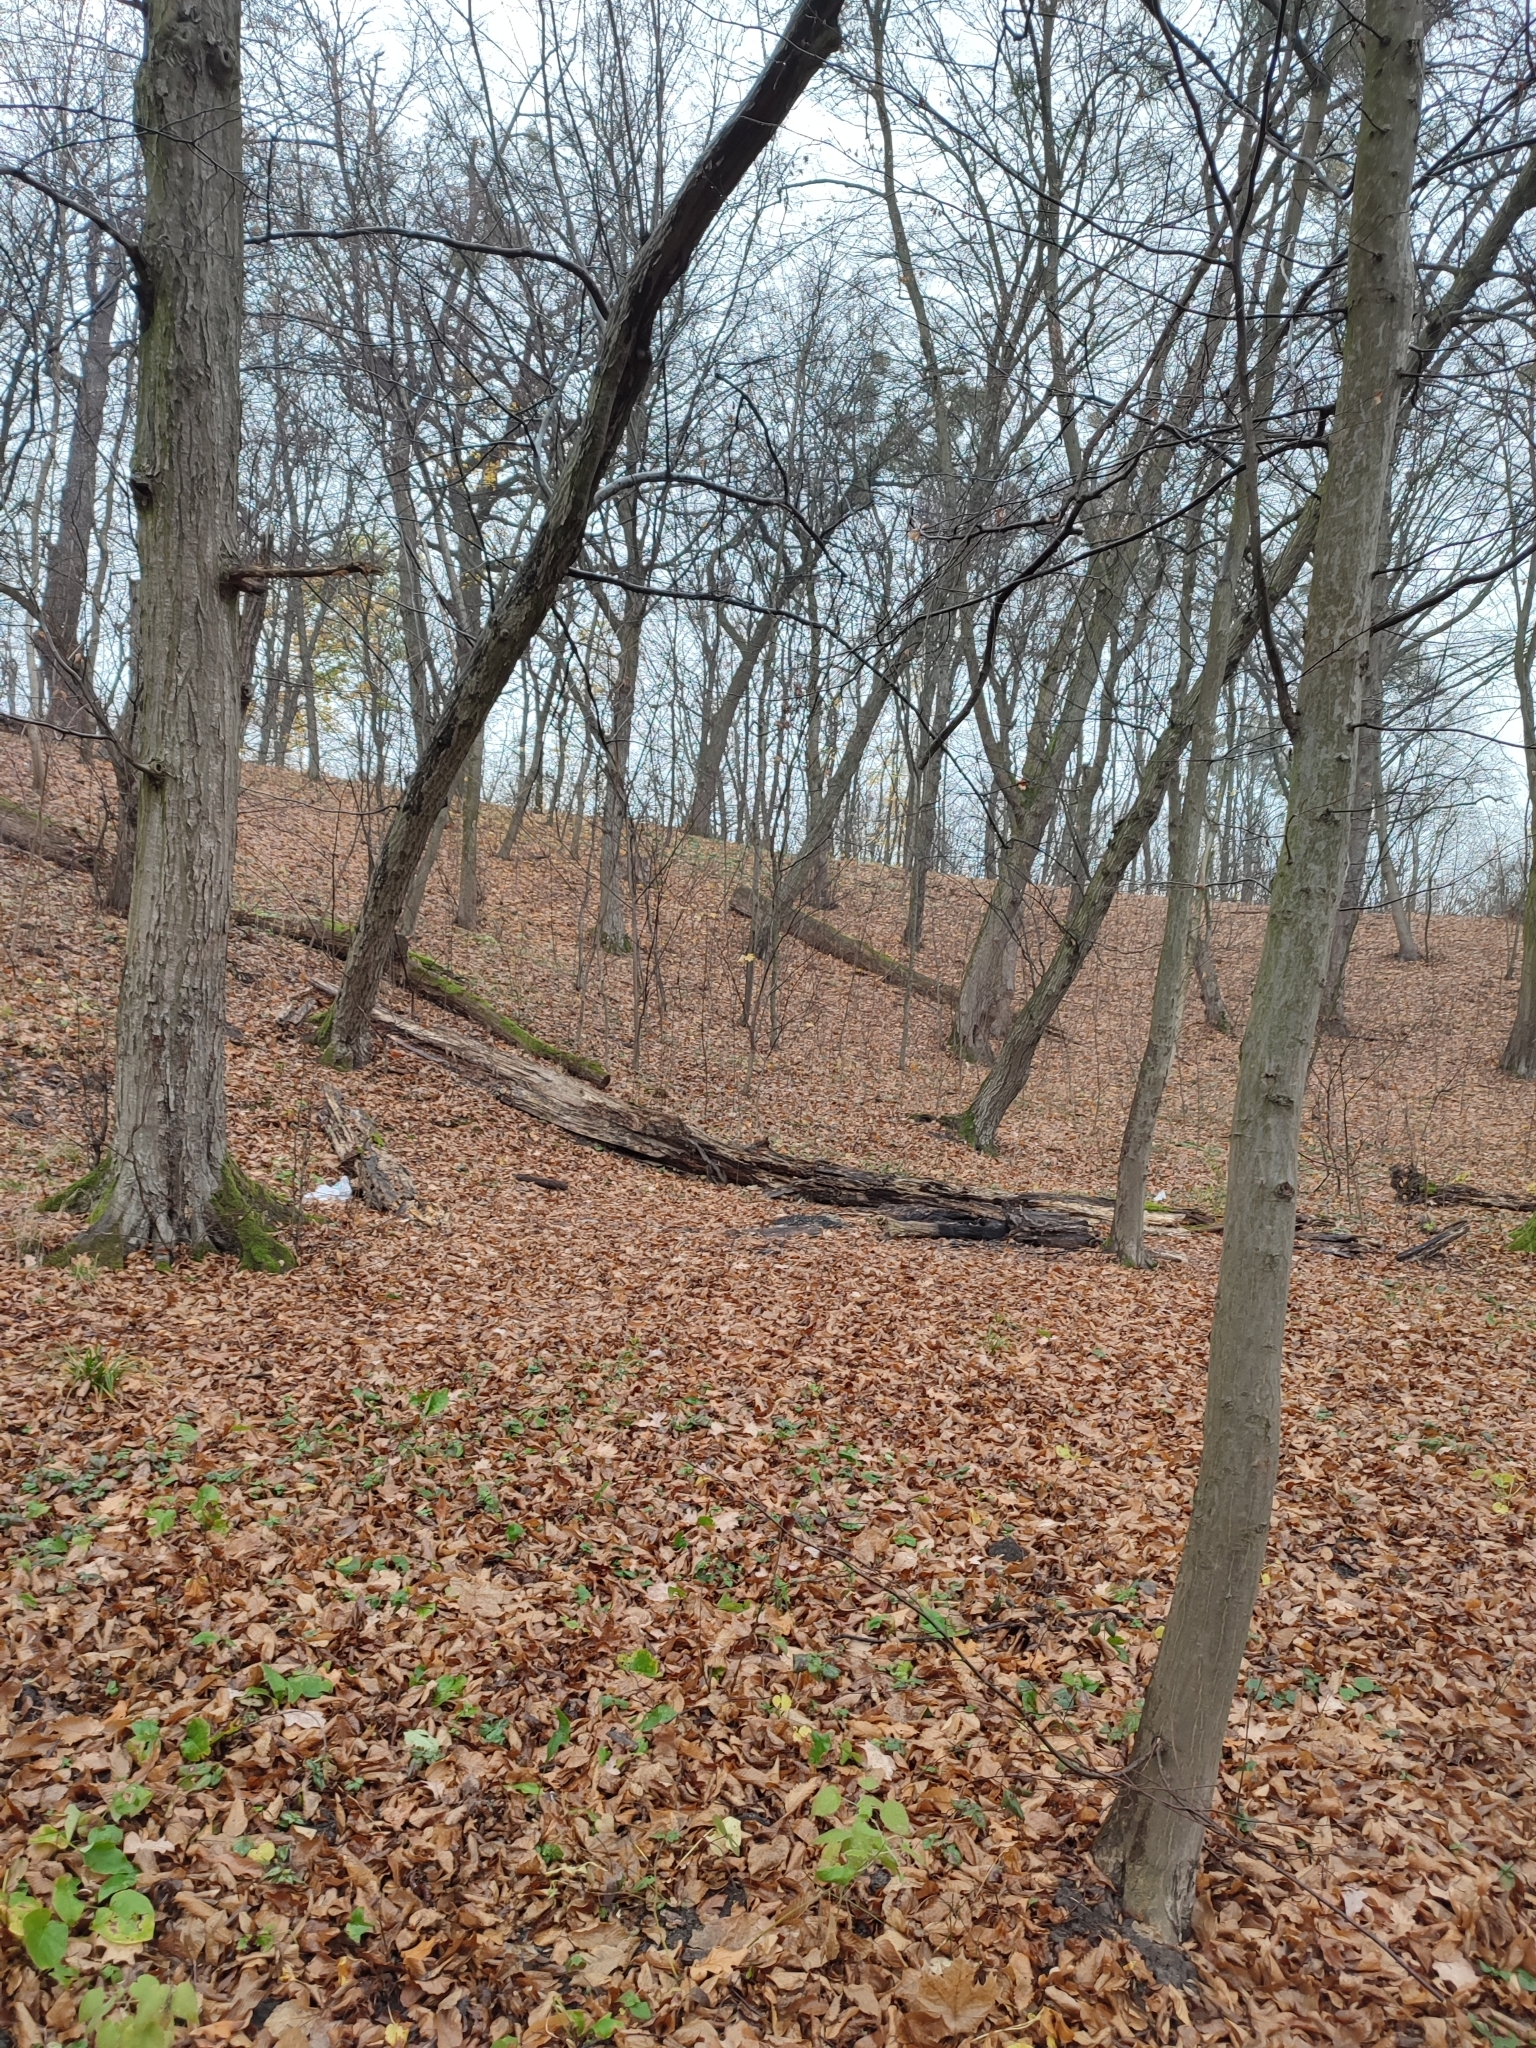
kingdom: Plantae
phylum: Tracheophyta
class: Magnoliopsida
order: Fagales
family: Betulaceae
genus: Carpinus
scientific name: Carpinus betulus
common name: Hornbeam
